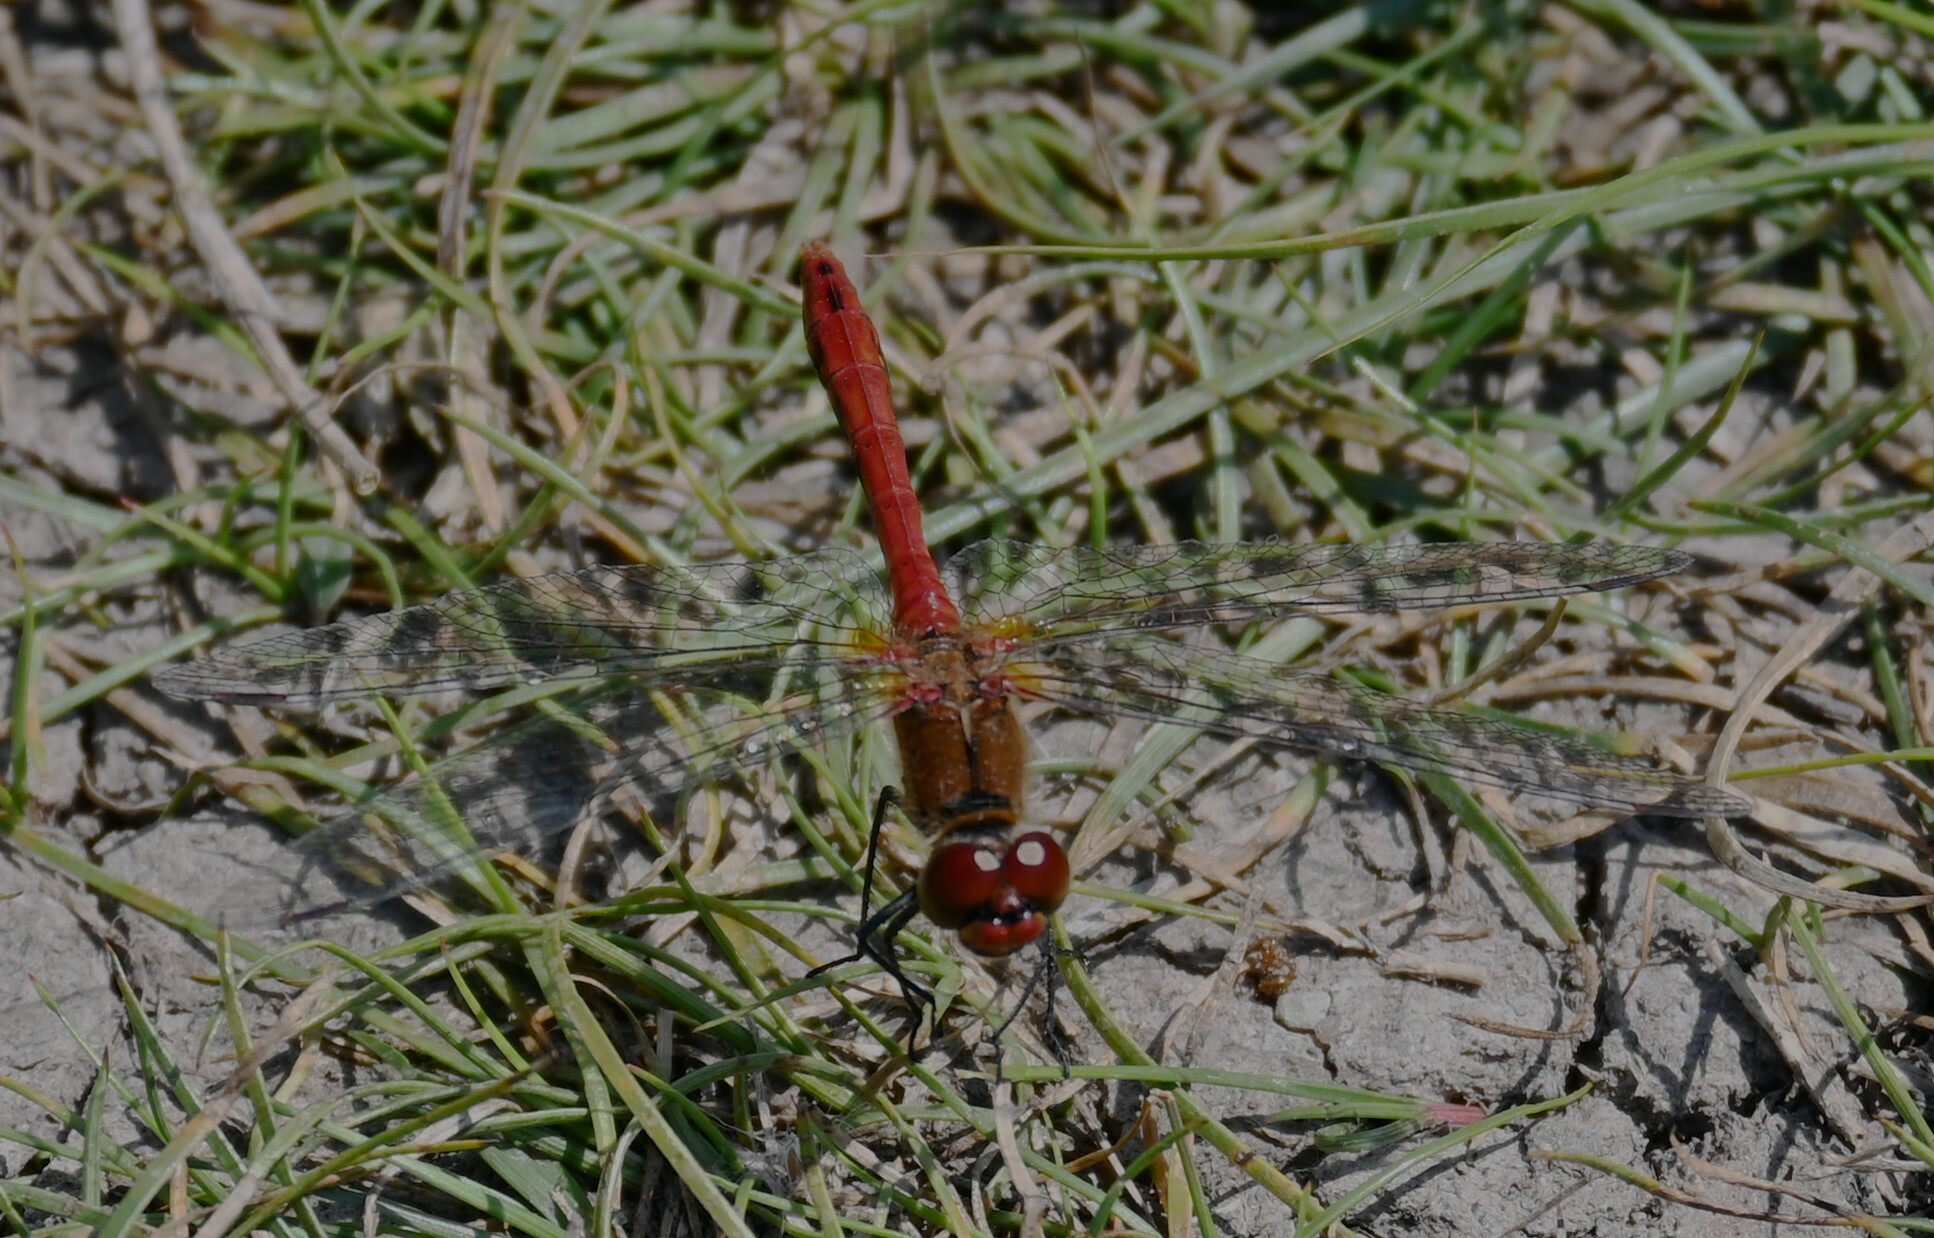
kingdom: Animalia
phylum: Arthropoda
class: Insecta
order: Odonata
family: Libellulidae
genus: Sympetrum
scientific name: Sympetrum sanguineum
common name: Ruddy darter
